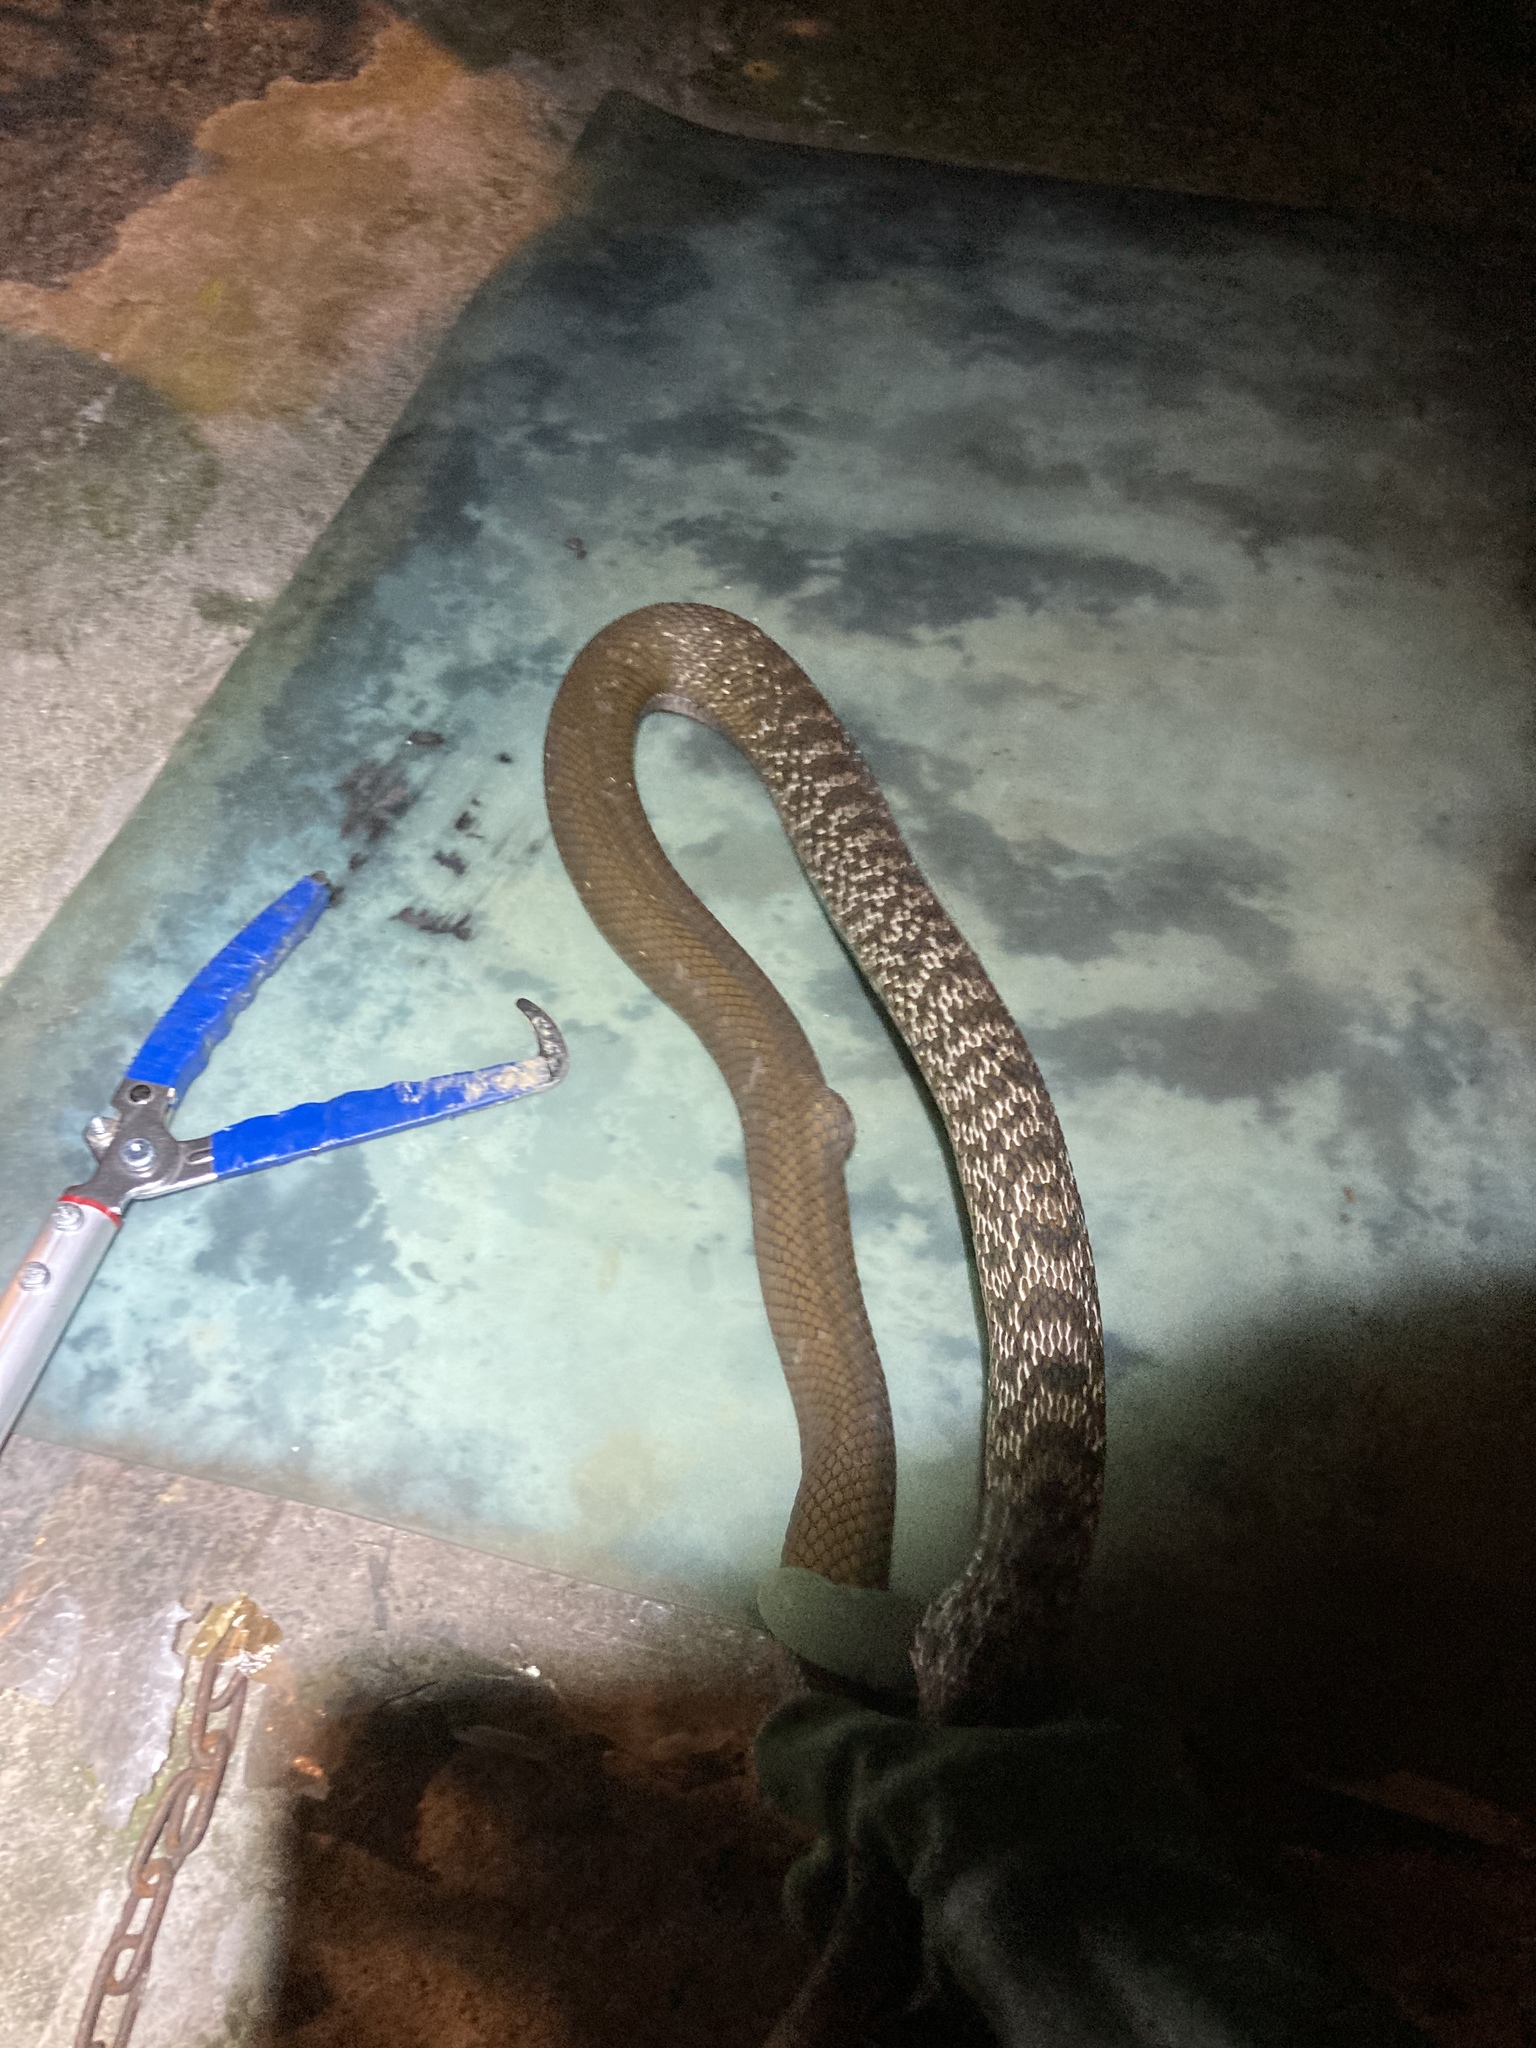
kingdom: Animalia
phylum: Chordata
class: Squamata
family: Colubridae
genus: Elaphe
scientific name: Elaphe carinata
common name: Taiwan stink snake
